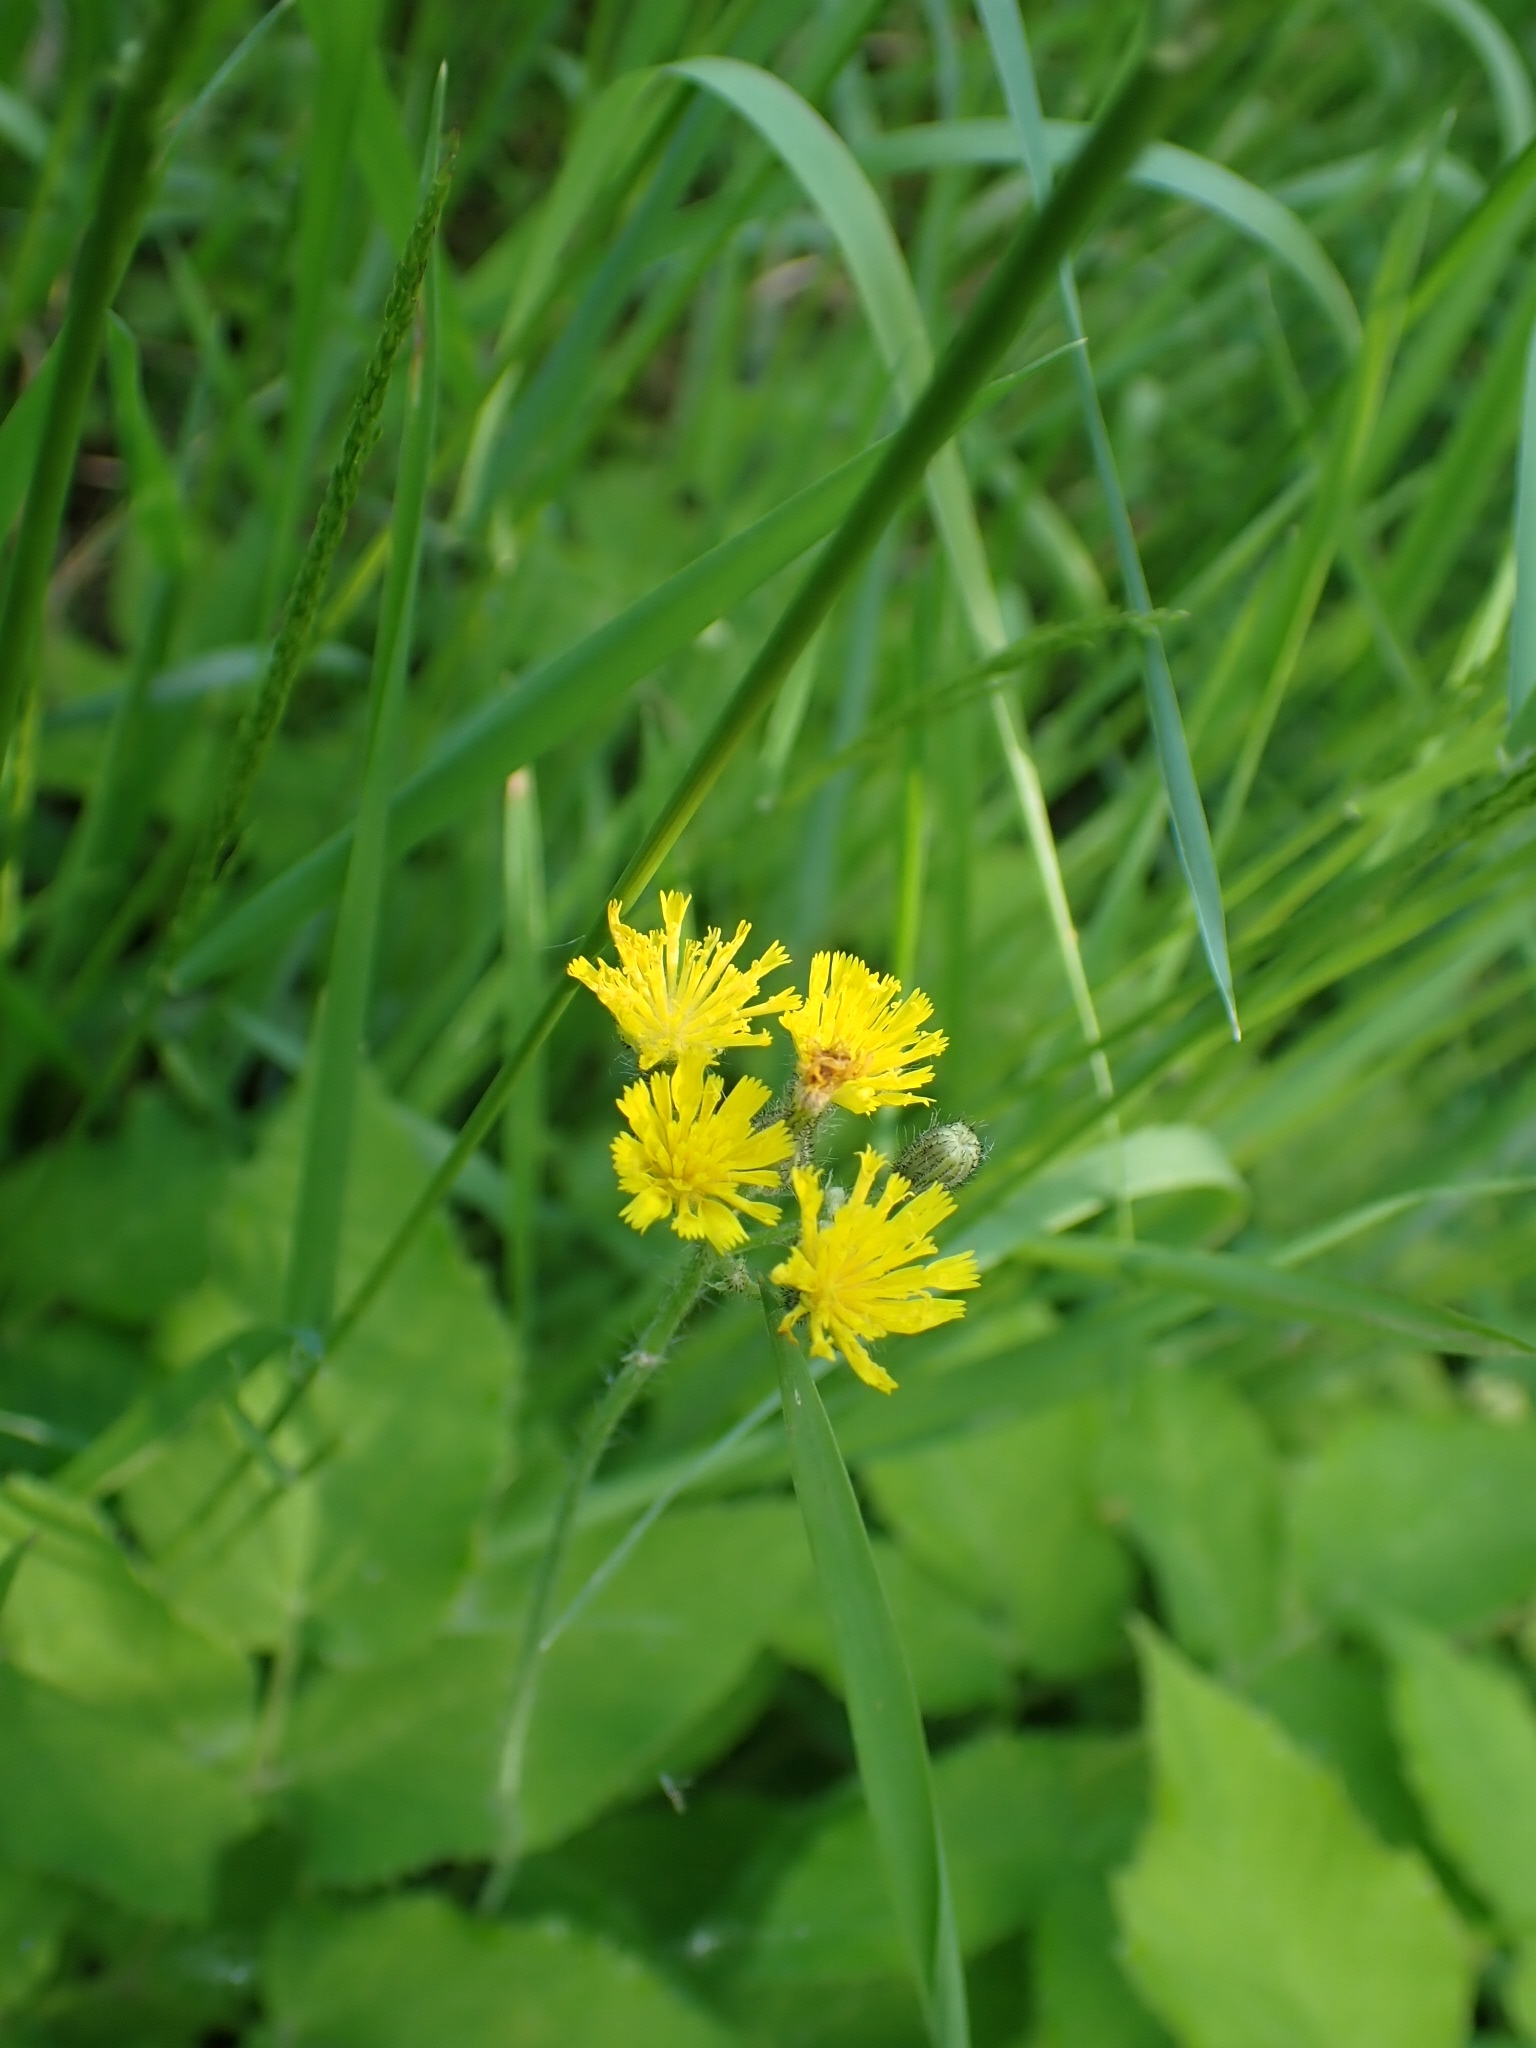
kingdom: Plantae
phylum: Tracheophyta
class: Magnoliopsida
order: Asterales
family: Asteraceae
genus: Crepis
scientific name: Crepis praemorsa
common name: Leafless hawk's-beard
